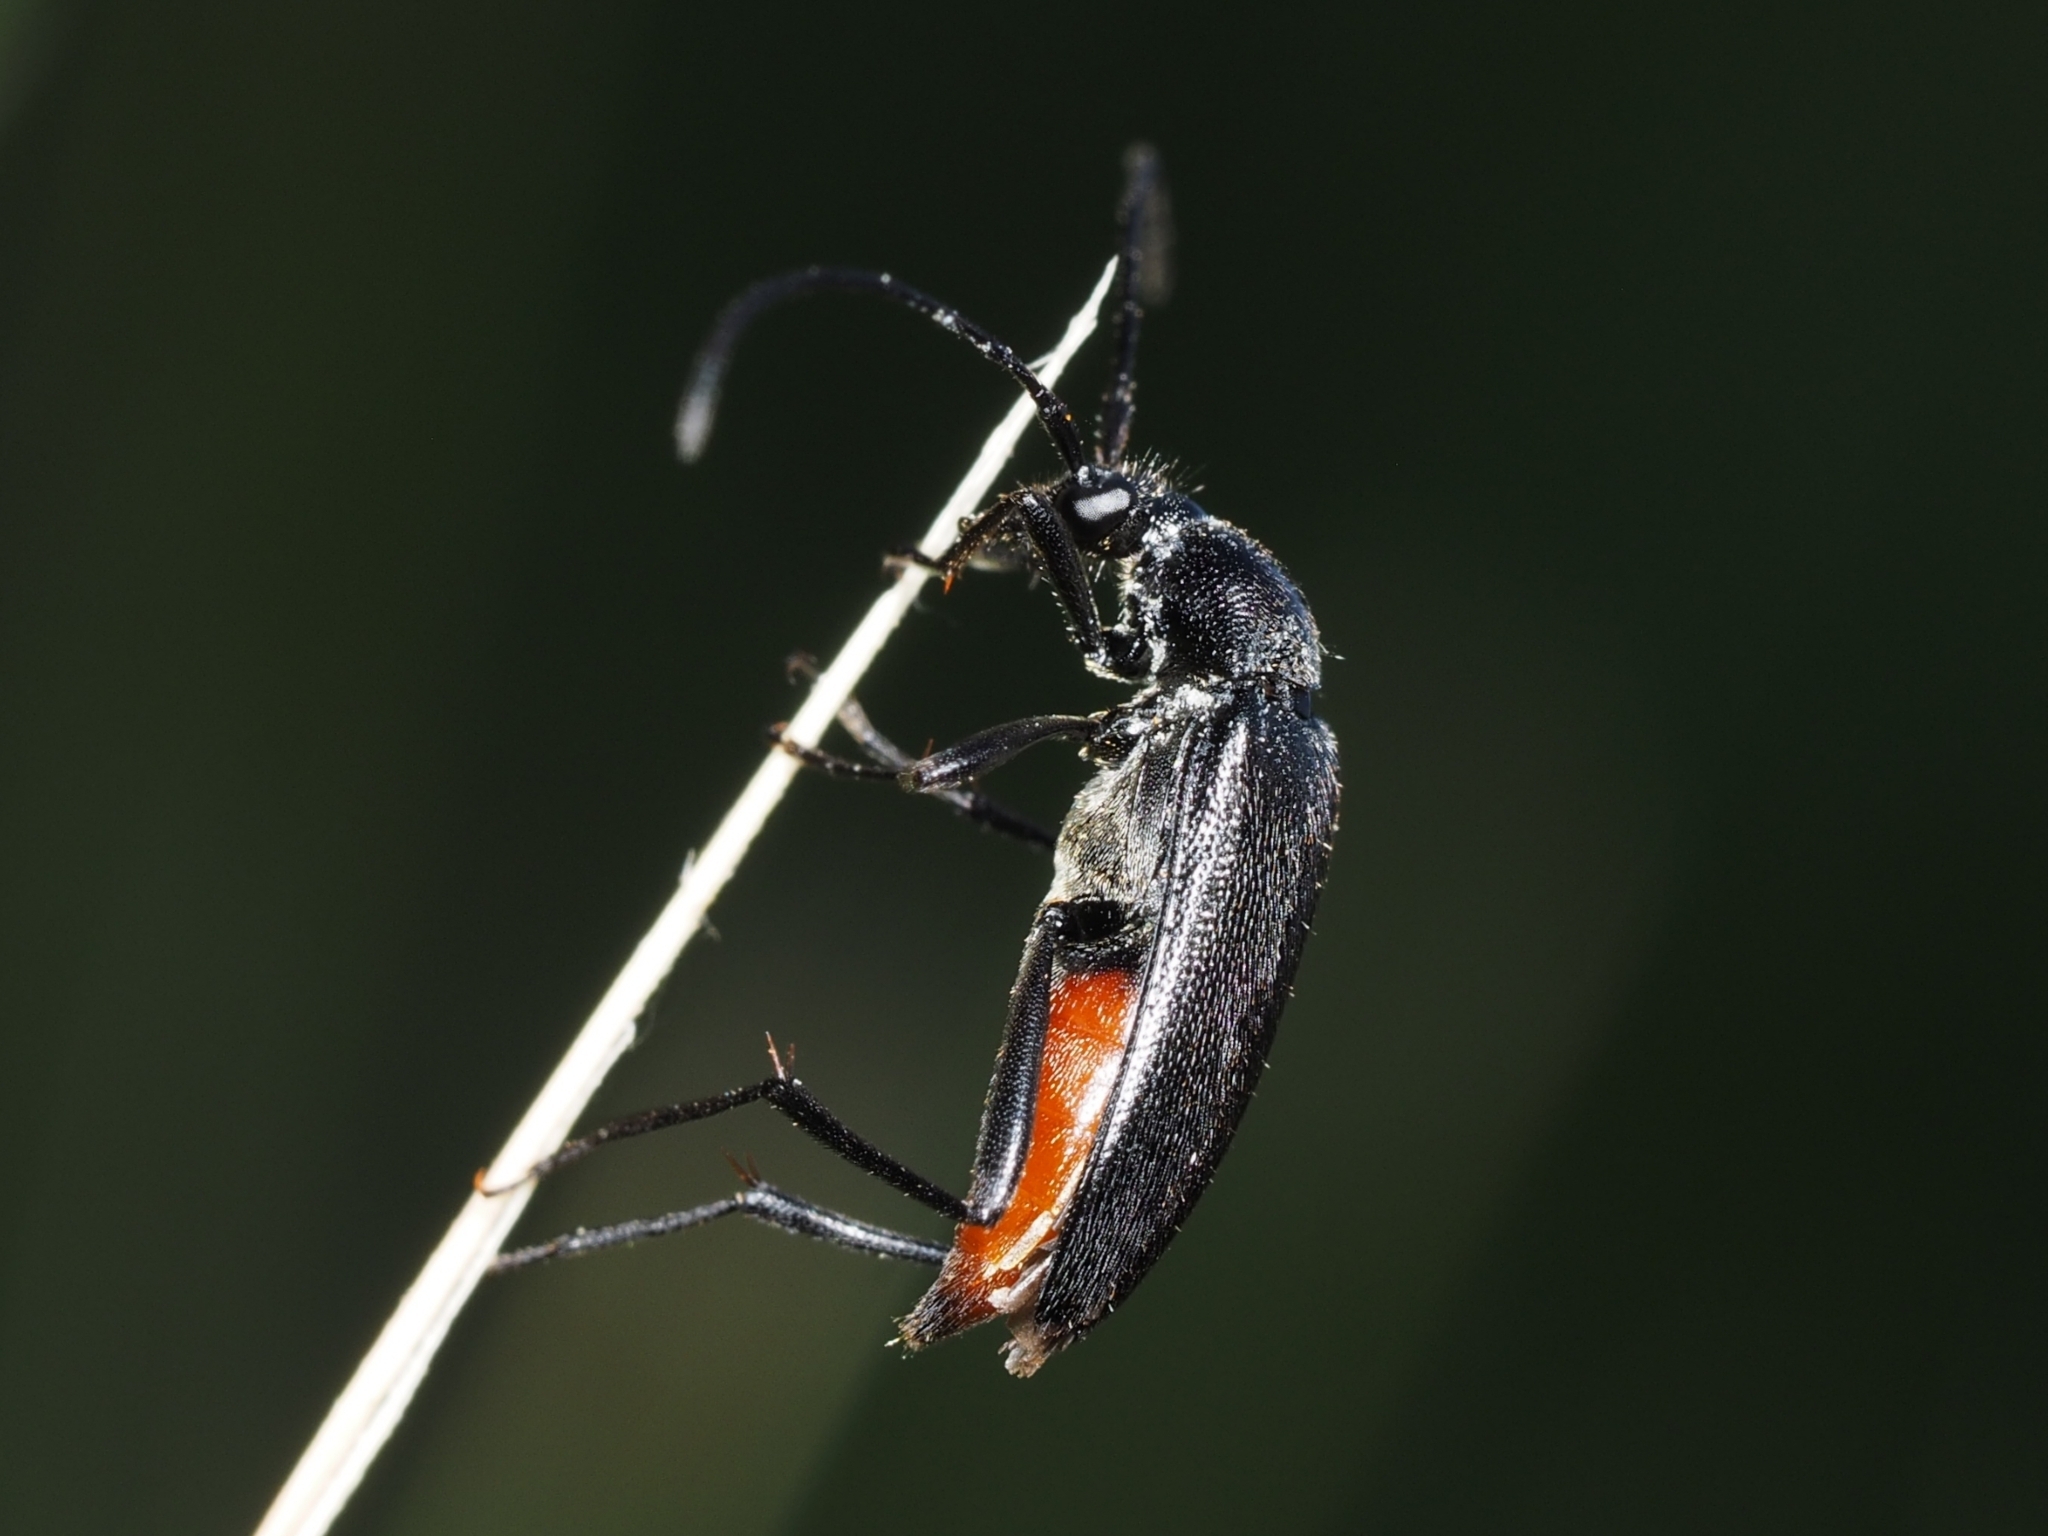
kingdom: Animalia
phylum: Arthropoda
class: Insecta
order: Coleoptera
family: Cerambycidae
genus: Stenurella
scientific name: Stenurella nigra
